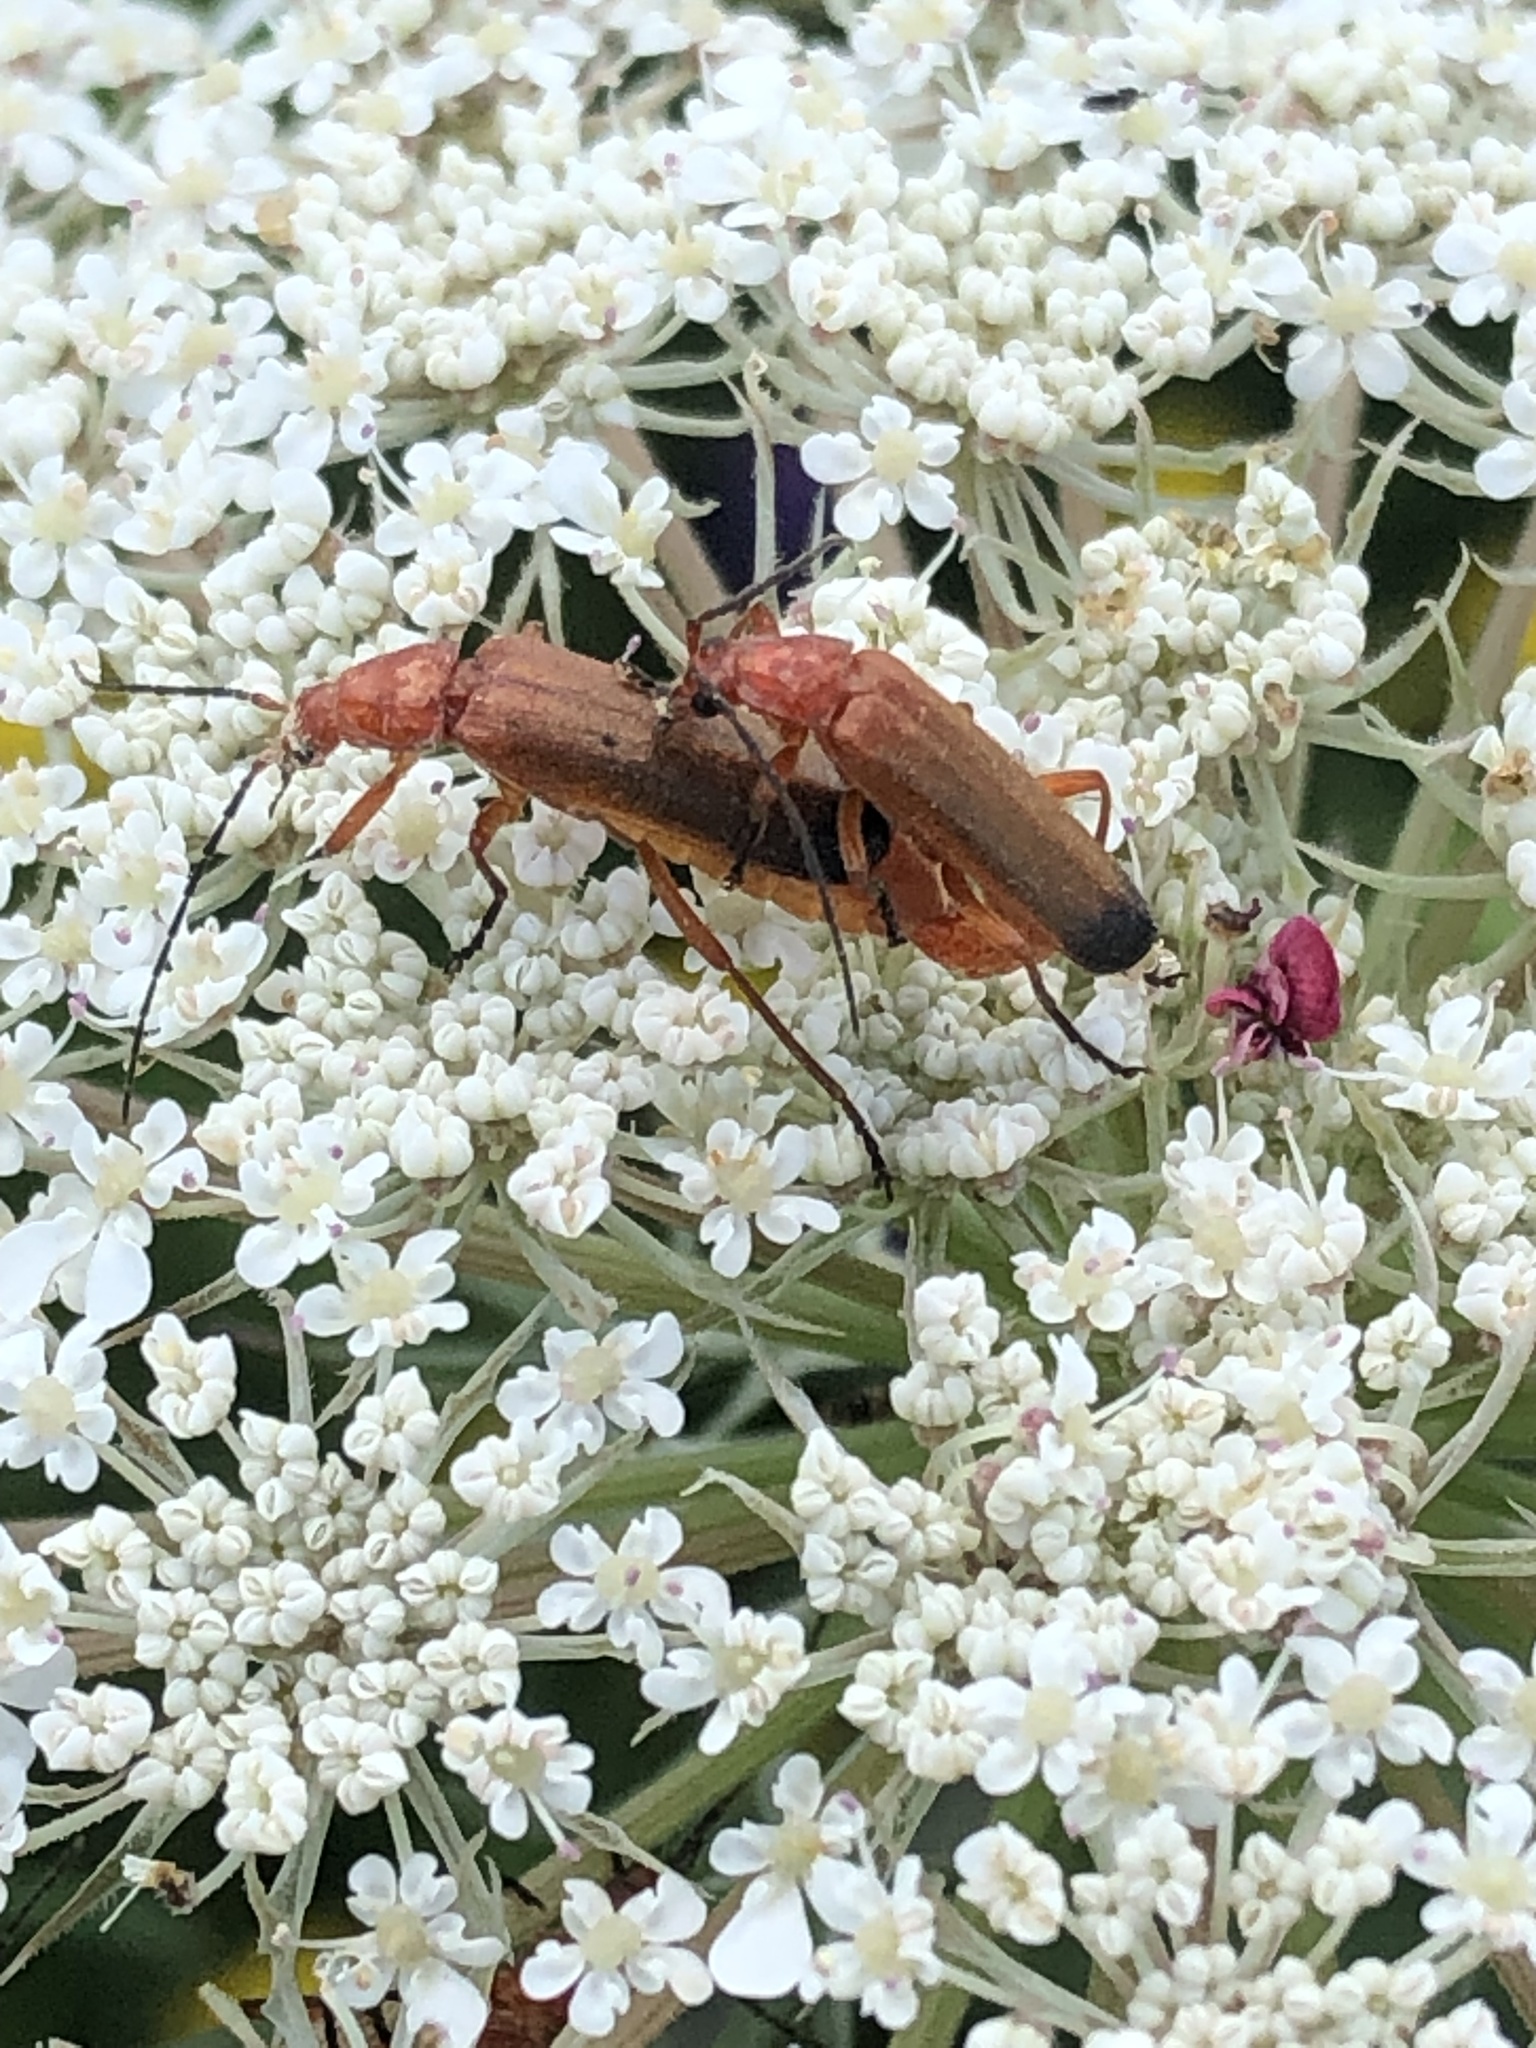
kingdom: Animalia
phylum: Arthropoda
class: Insecta
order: Coleoptera
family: Cantharidae
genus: Rhagonycha
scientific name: Rhagonycha fulva
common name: Common red soldier beetle
